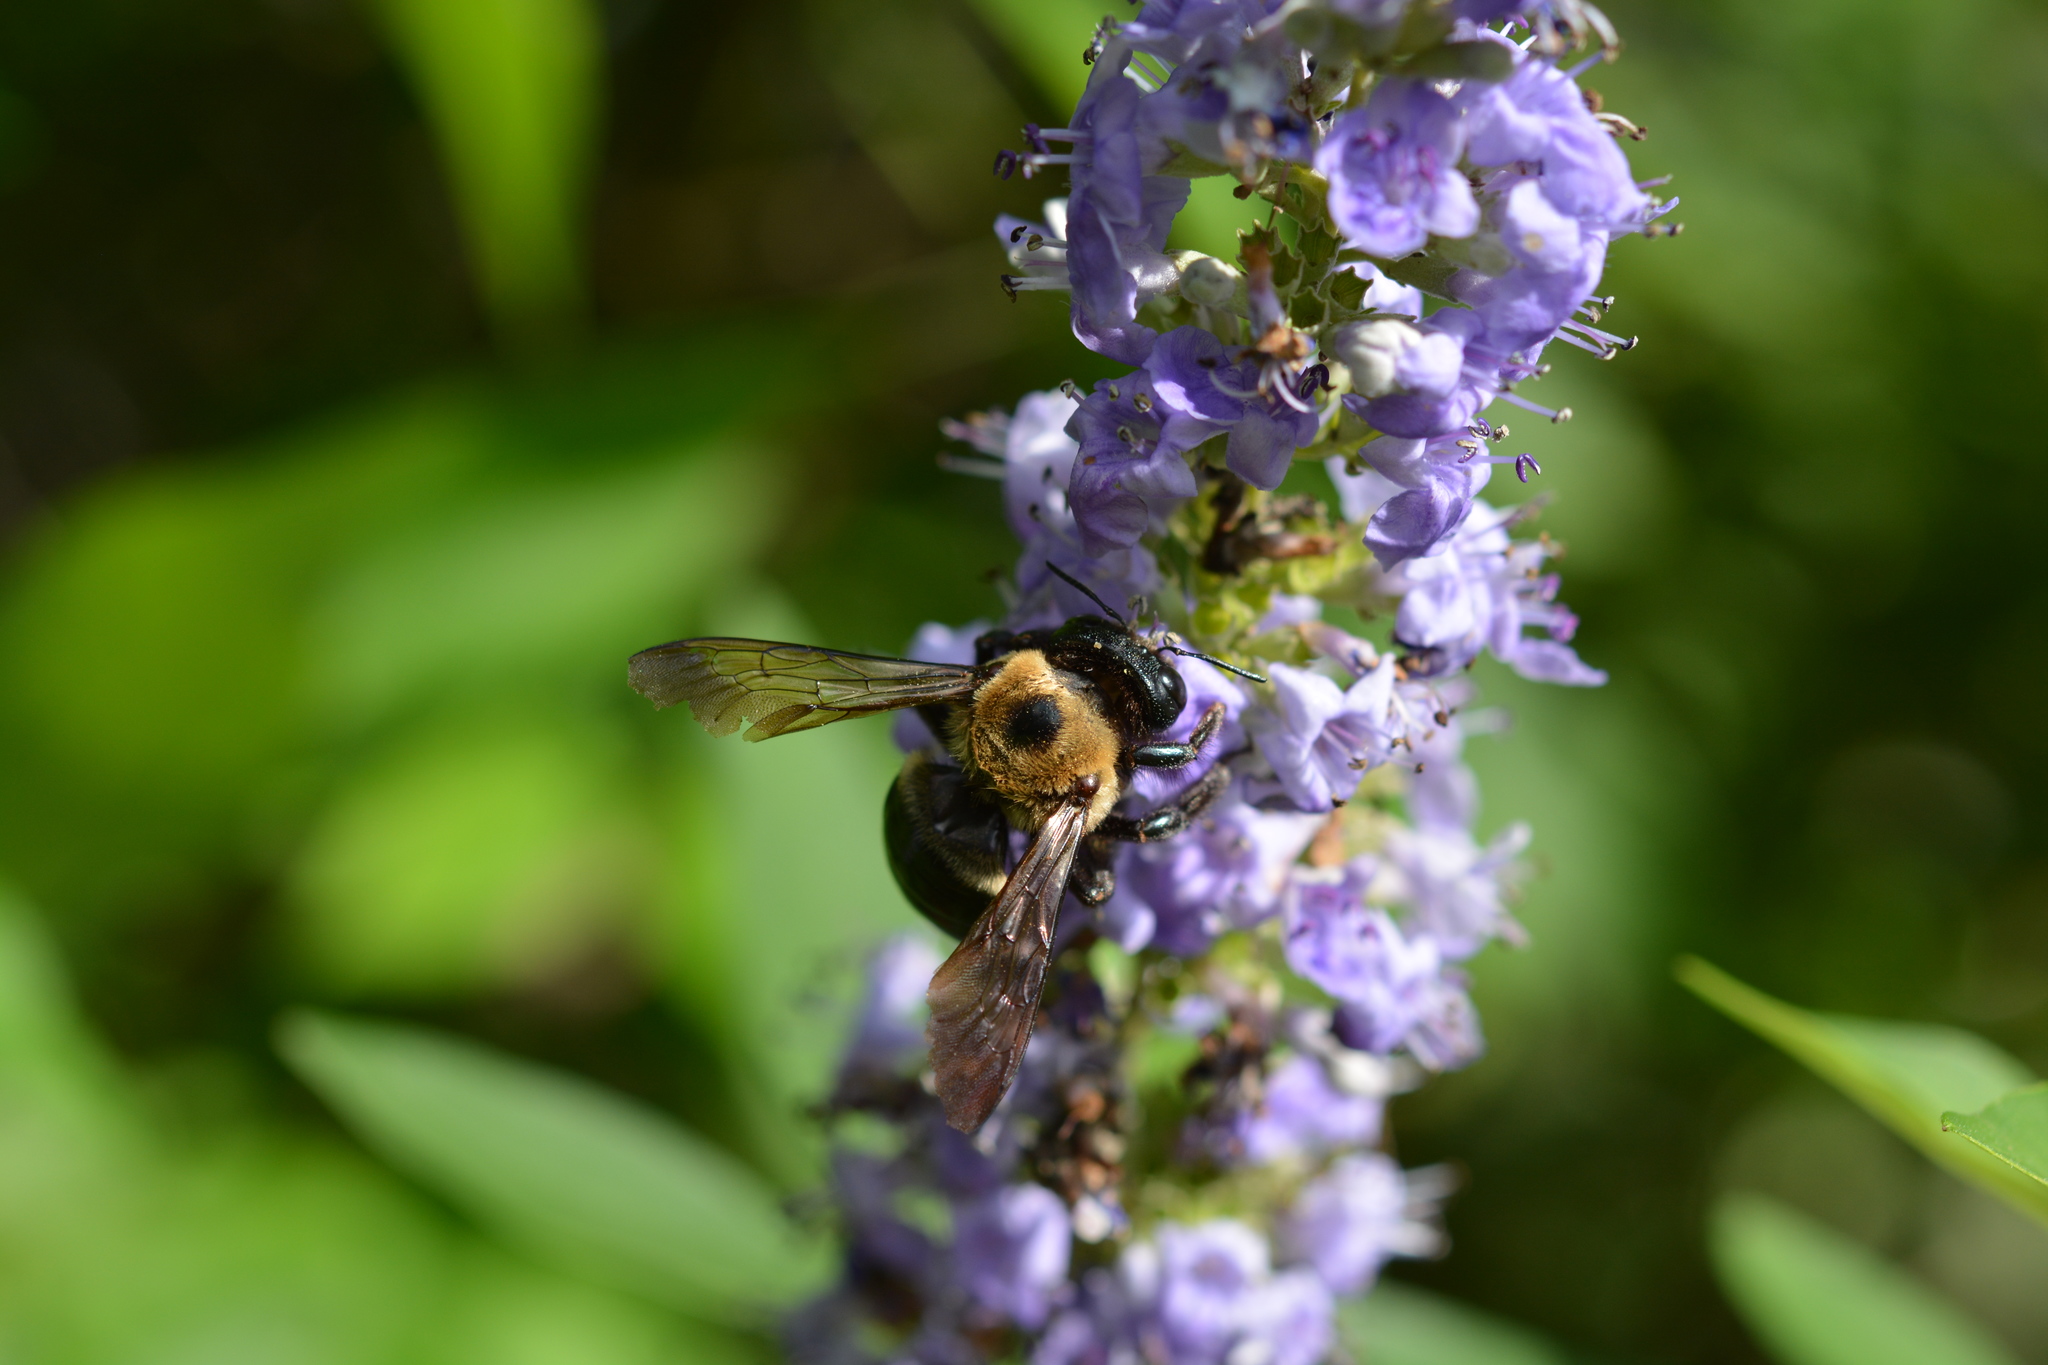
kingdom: Animalia
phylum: Arthropoda
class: Insecta
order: Hymenoptera
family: Apidae
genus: Xylocopa
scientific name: Xylocopa virginica
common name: Carpenter bee
